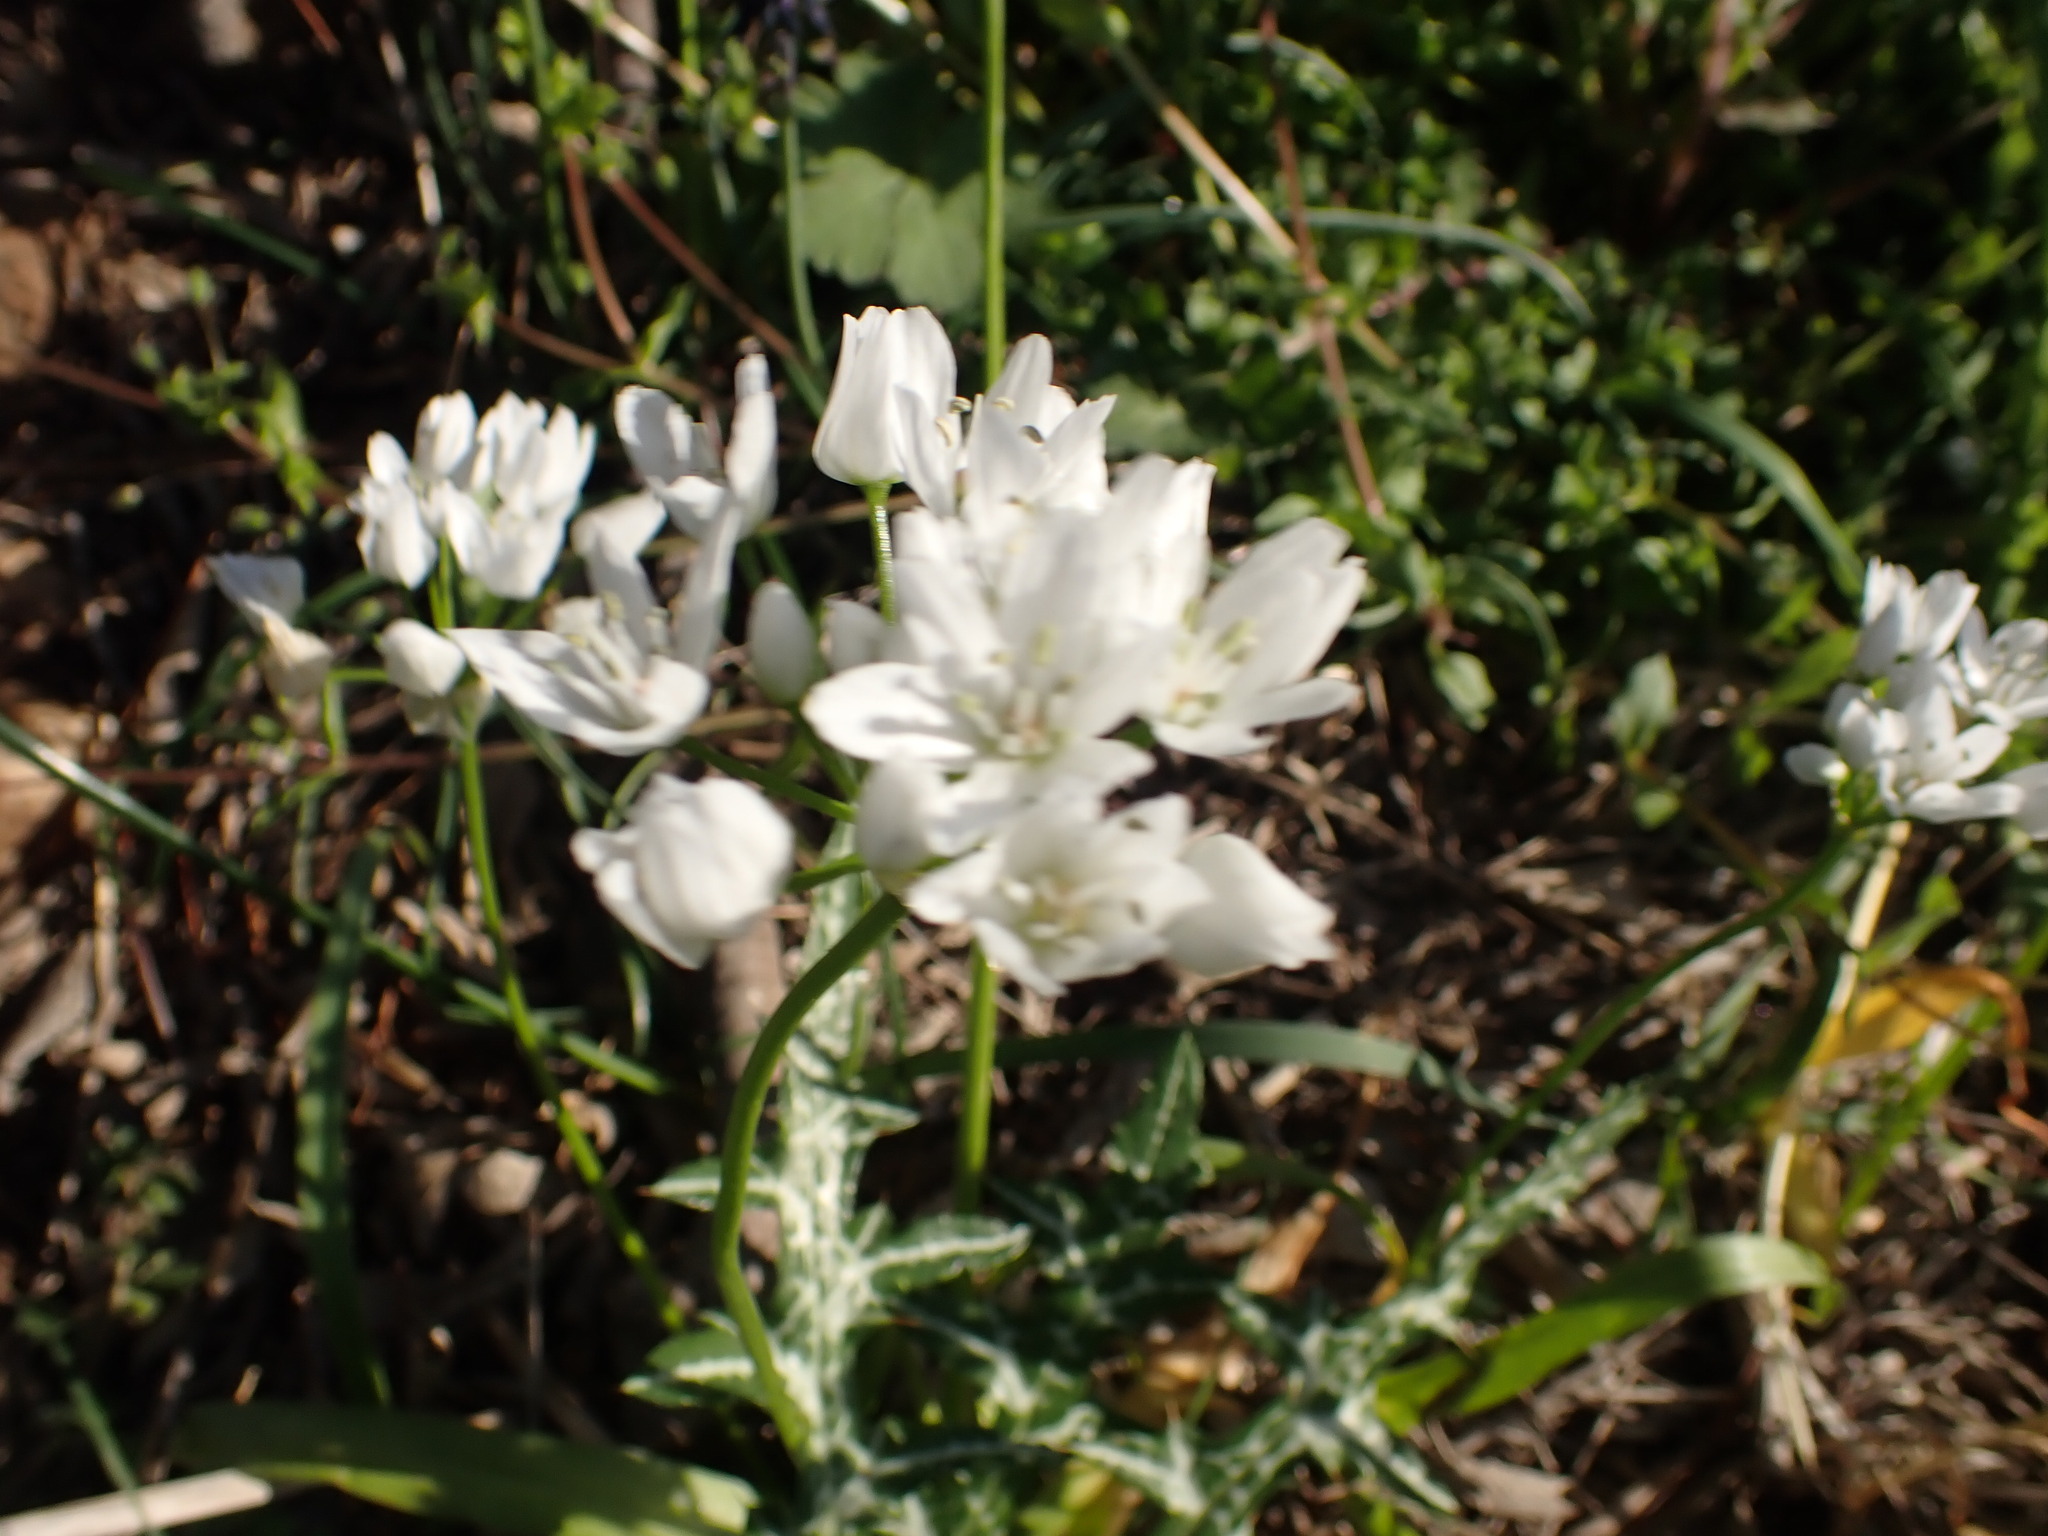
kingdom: Plantae
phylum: Tracheophyta
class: Liliopsida
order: Asparagales
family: Amaryllidaceae
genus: Allium
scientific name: Allium neapolitanum
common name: Neapolitan garlic
